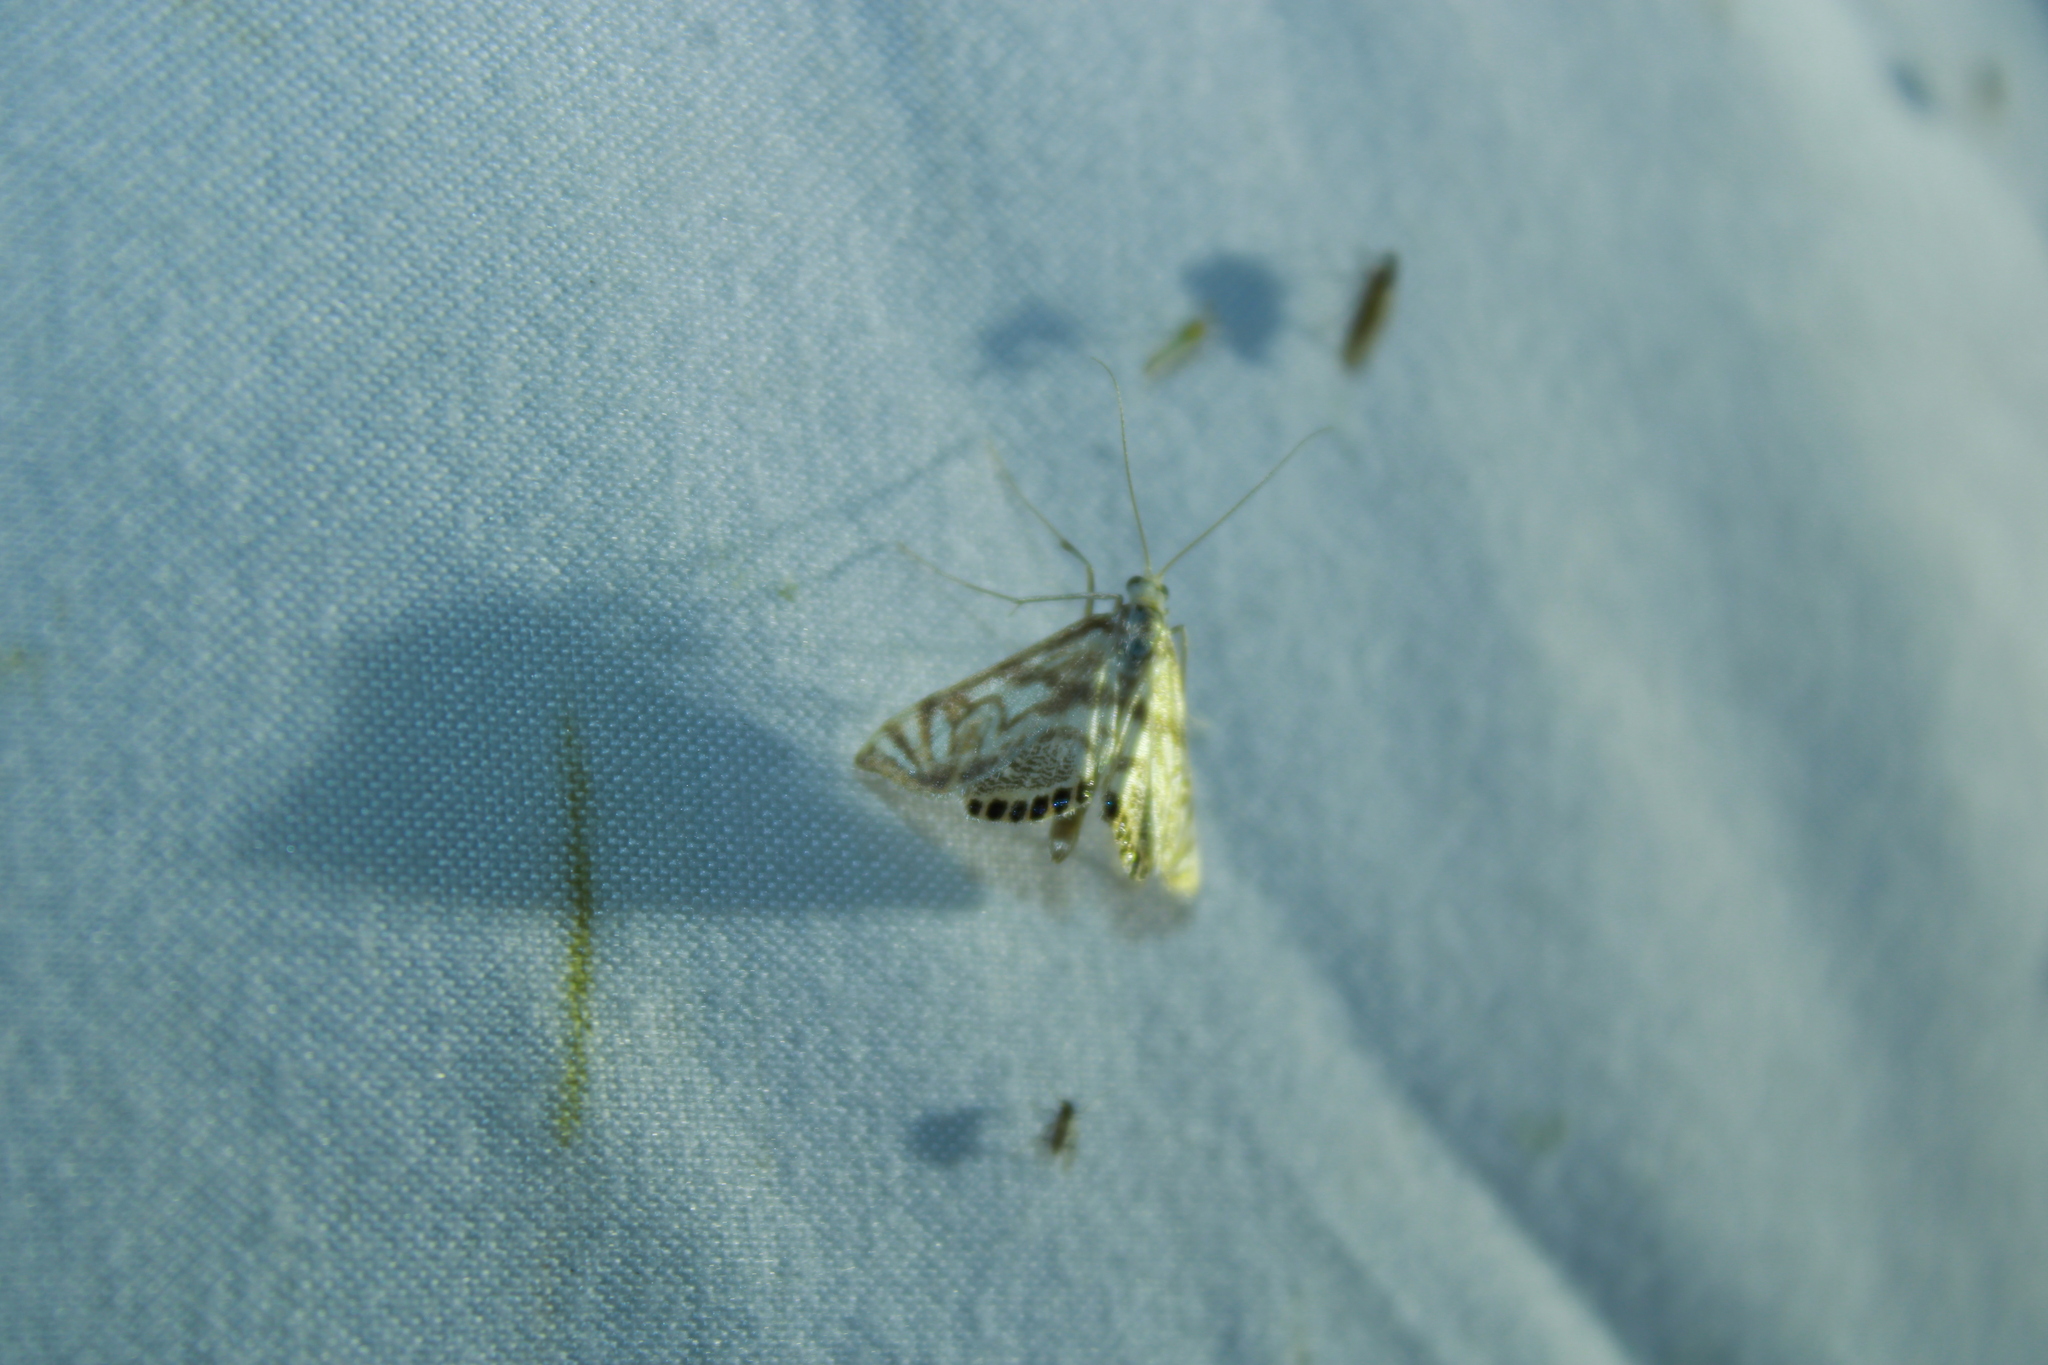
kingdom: Animalia
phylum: Arthropoda
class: Insecta
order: Lepidoptera
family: Crambidae
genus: Neocataclysta
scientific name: Neocataclysta magnificalis
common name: Scrollwork pyralid moth
